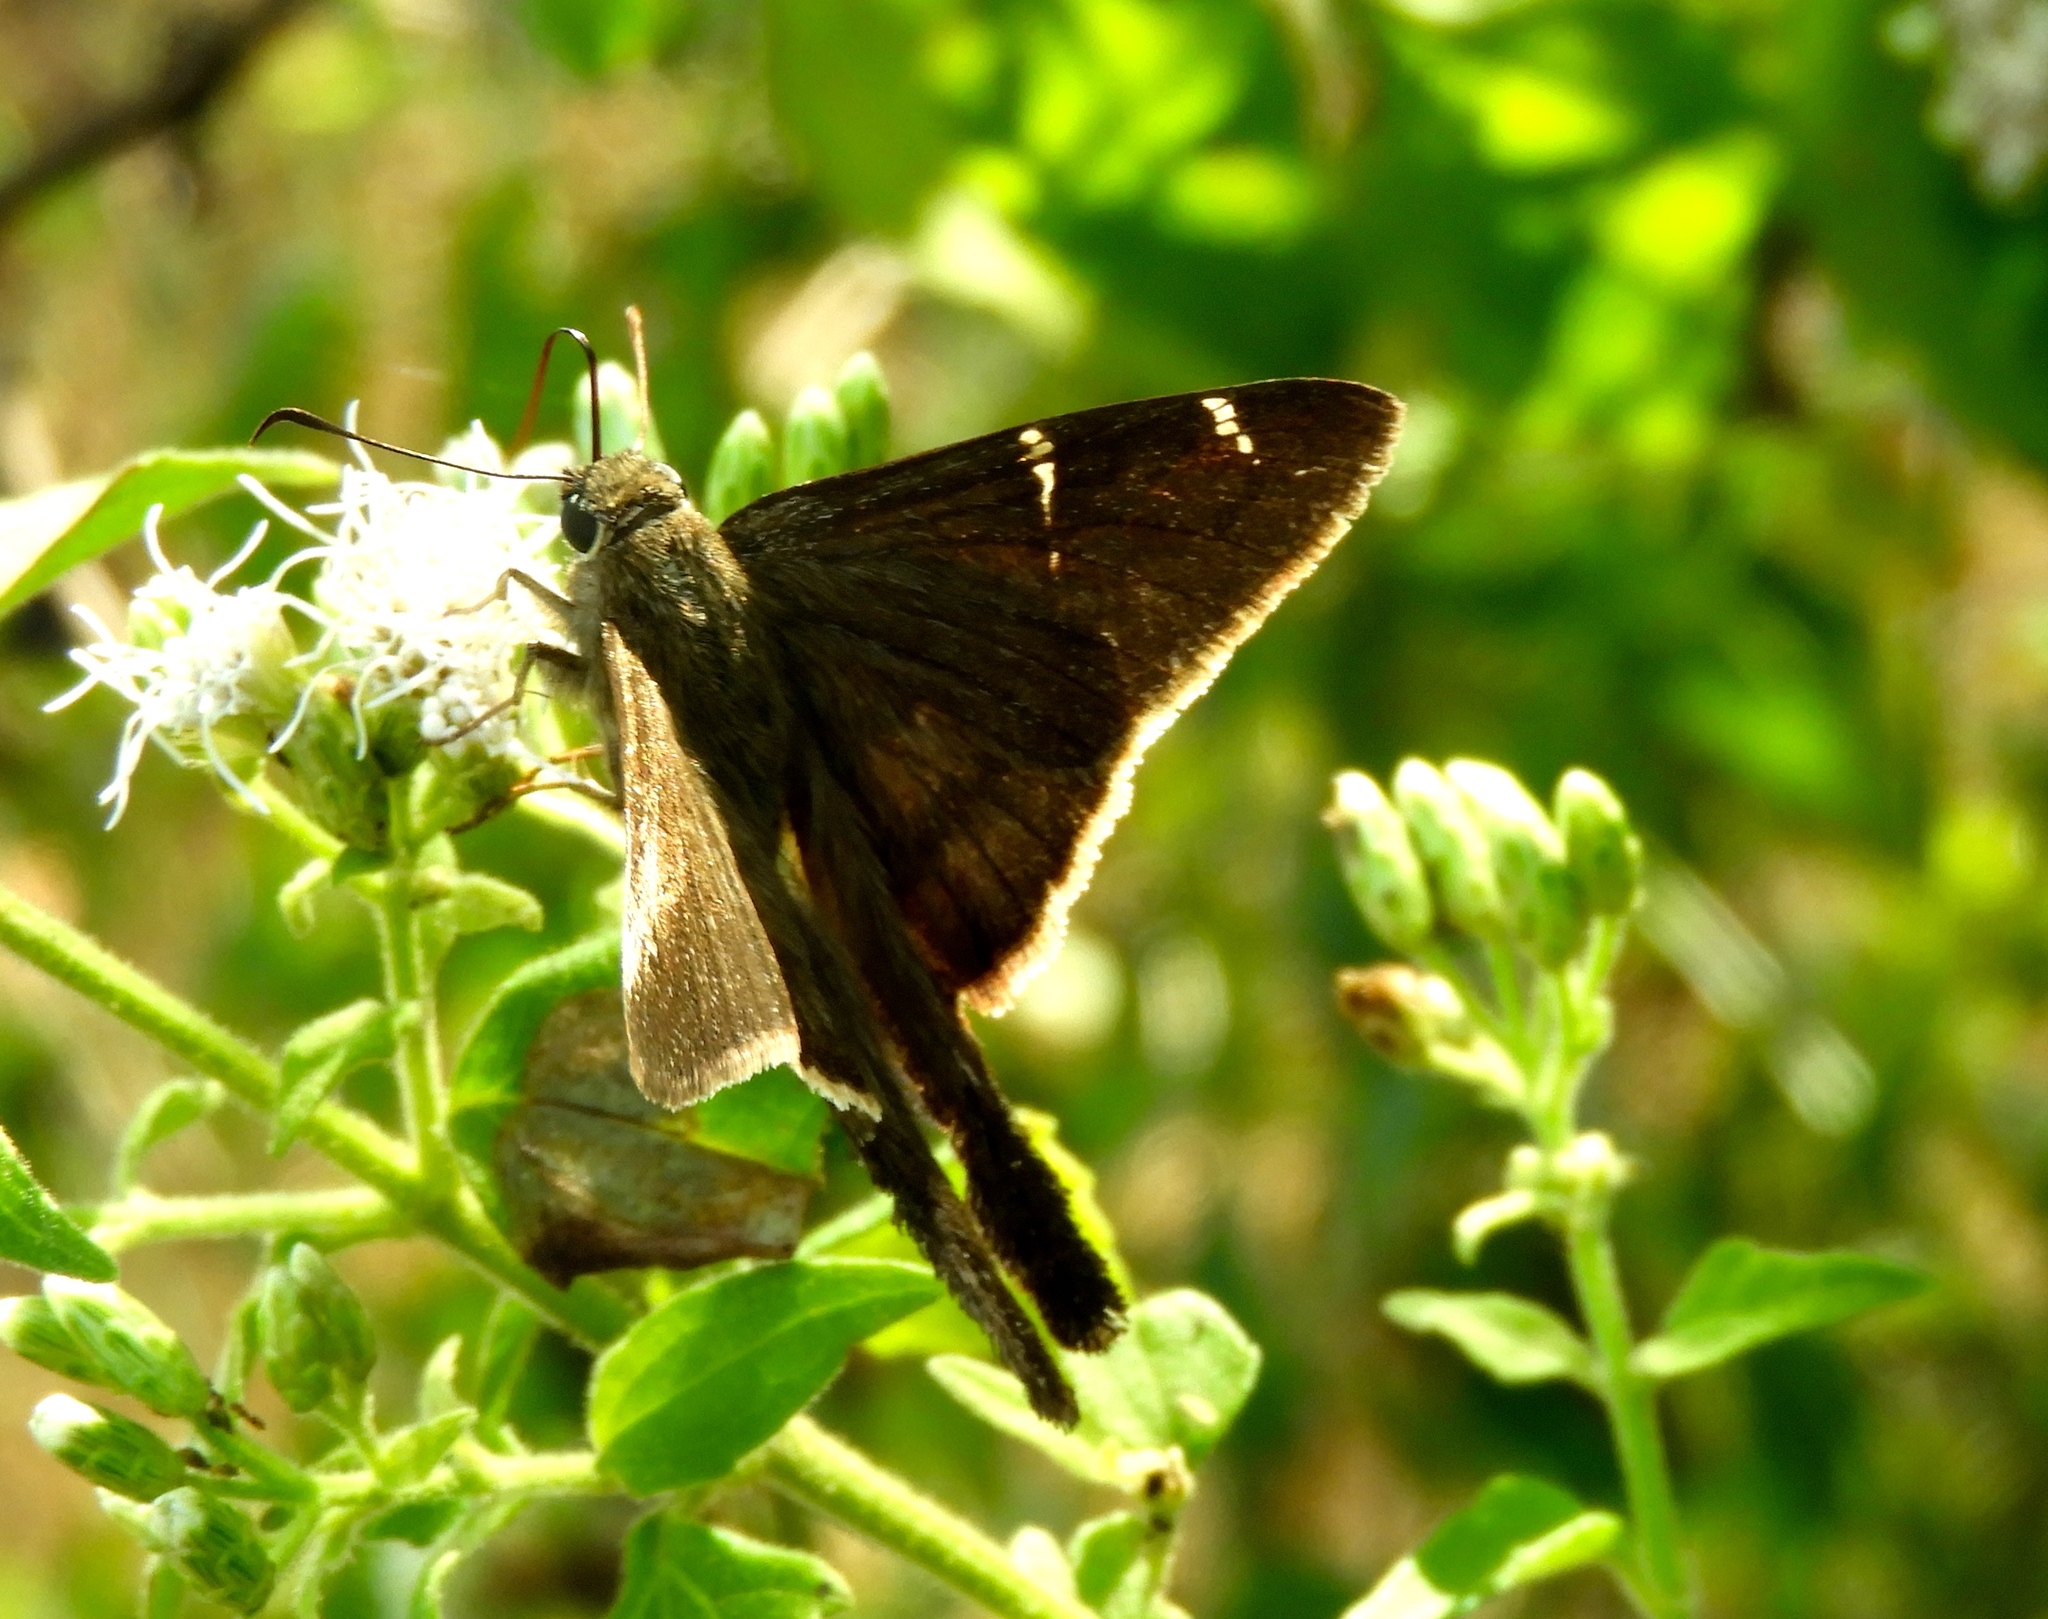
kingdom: Animalia
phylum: Arthropoda
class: Insecta
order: Lepidoptera
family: Hesperiidae
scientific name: Hesperiidae
